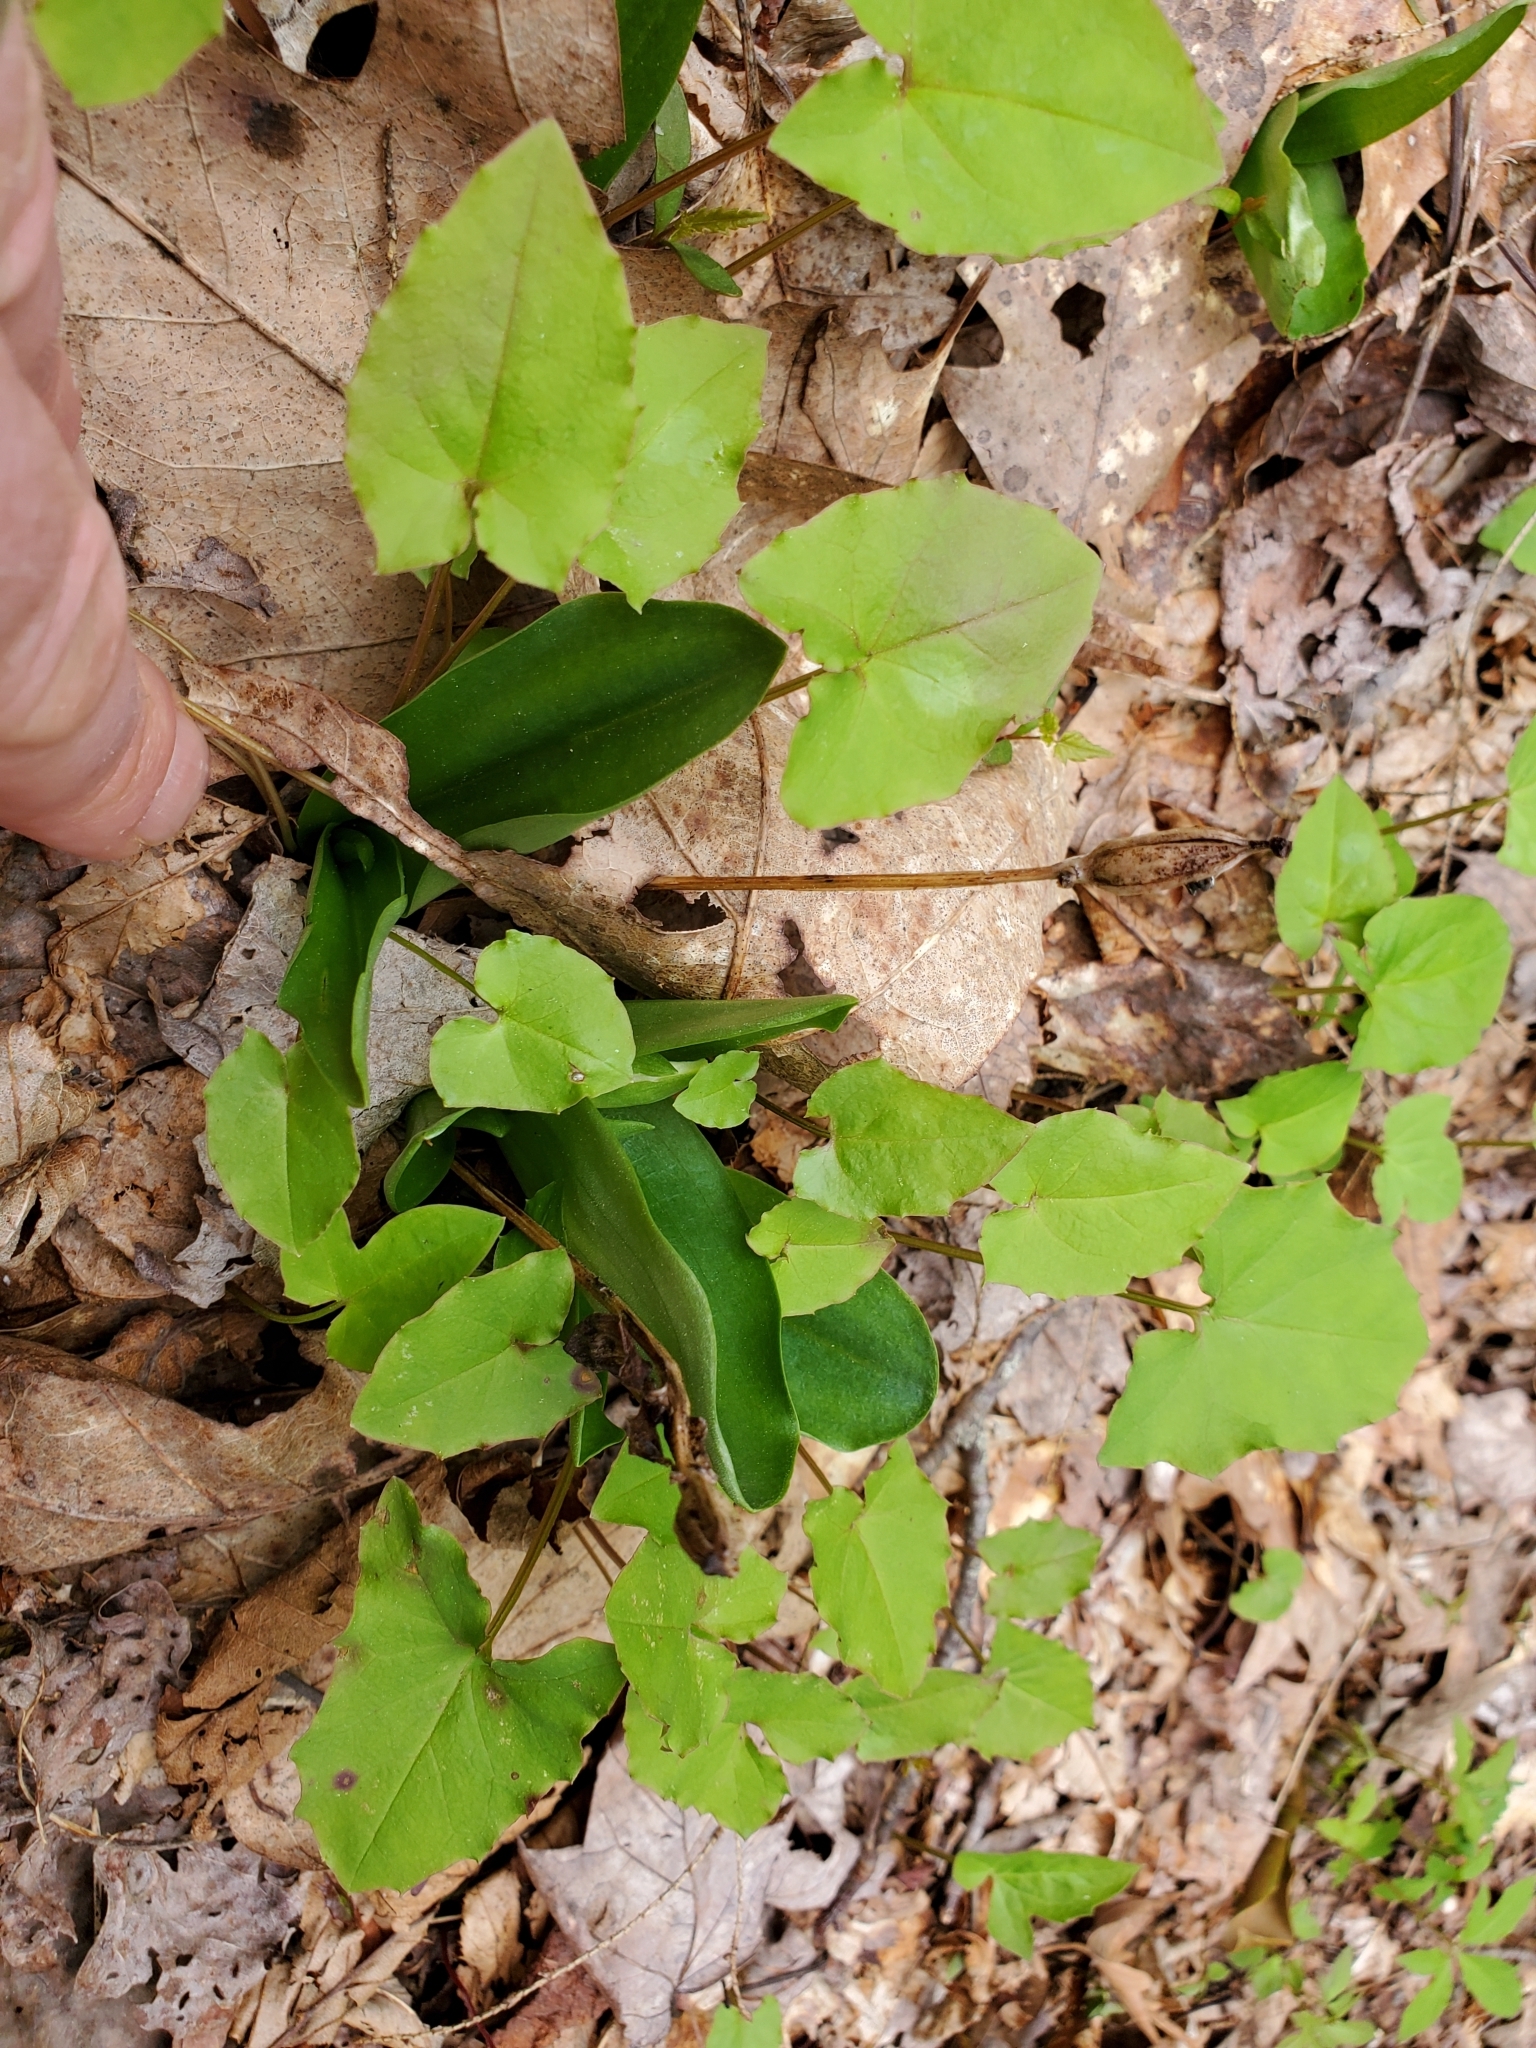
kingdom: Plantae
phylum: Tracheophyta
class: Liliopsida
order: Asparagales
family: Orchidaceae
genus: Galearis
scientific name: Galearis spectabilis
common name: Purple-hooded orchis
